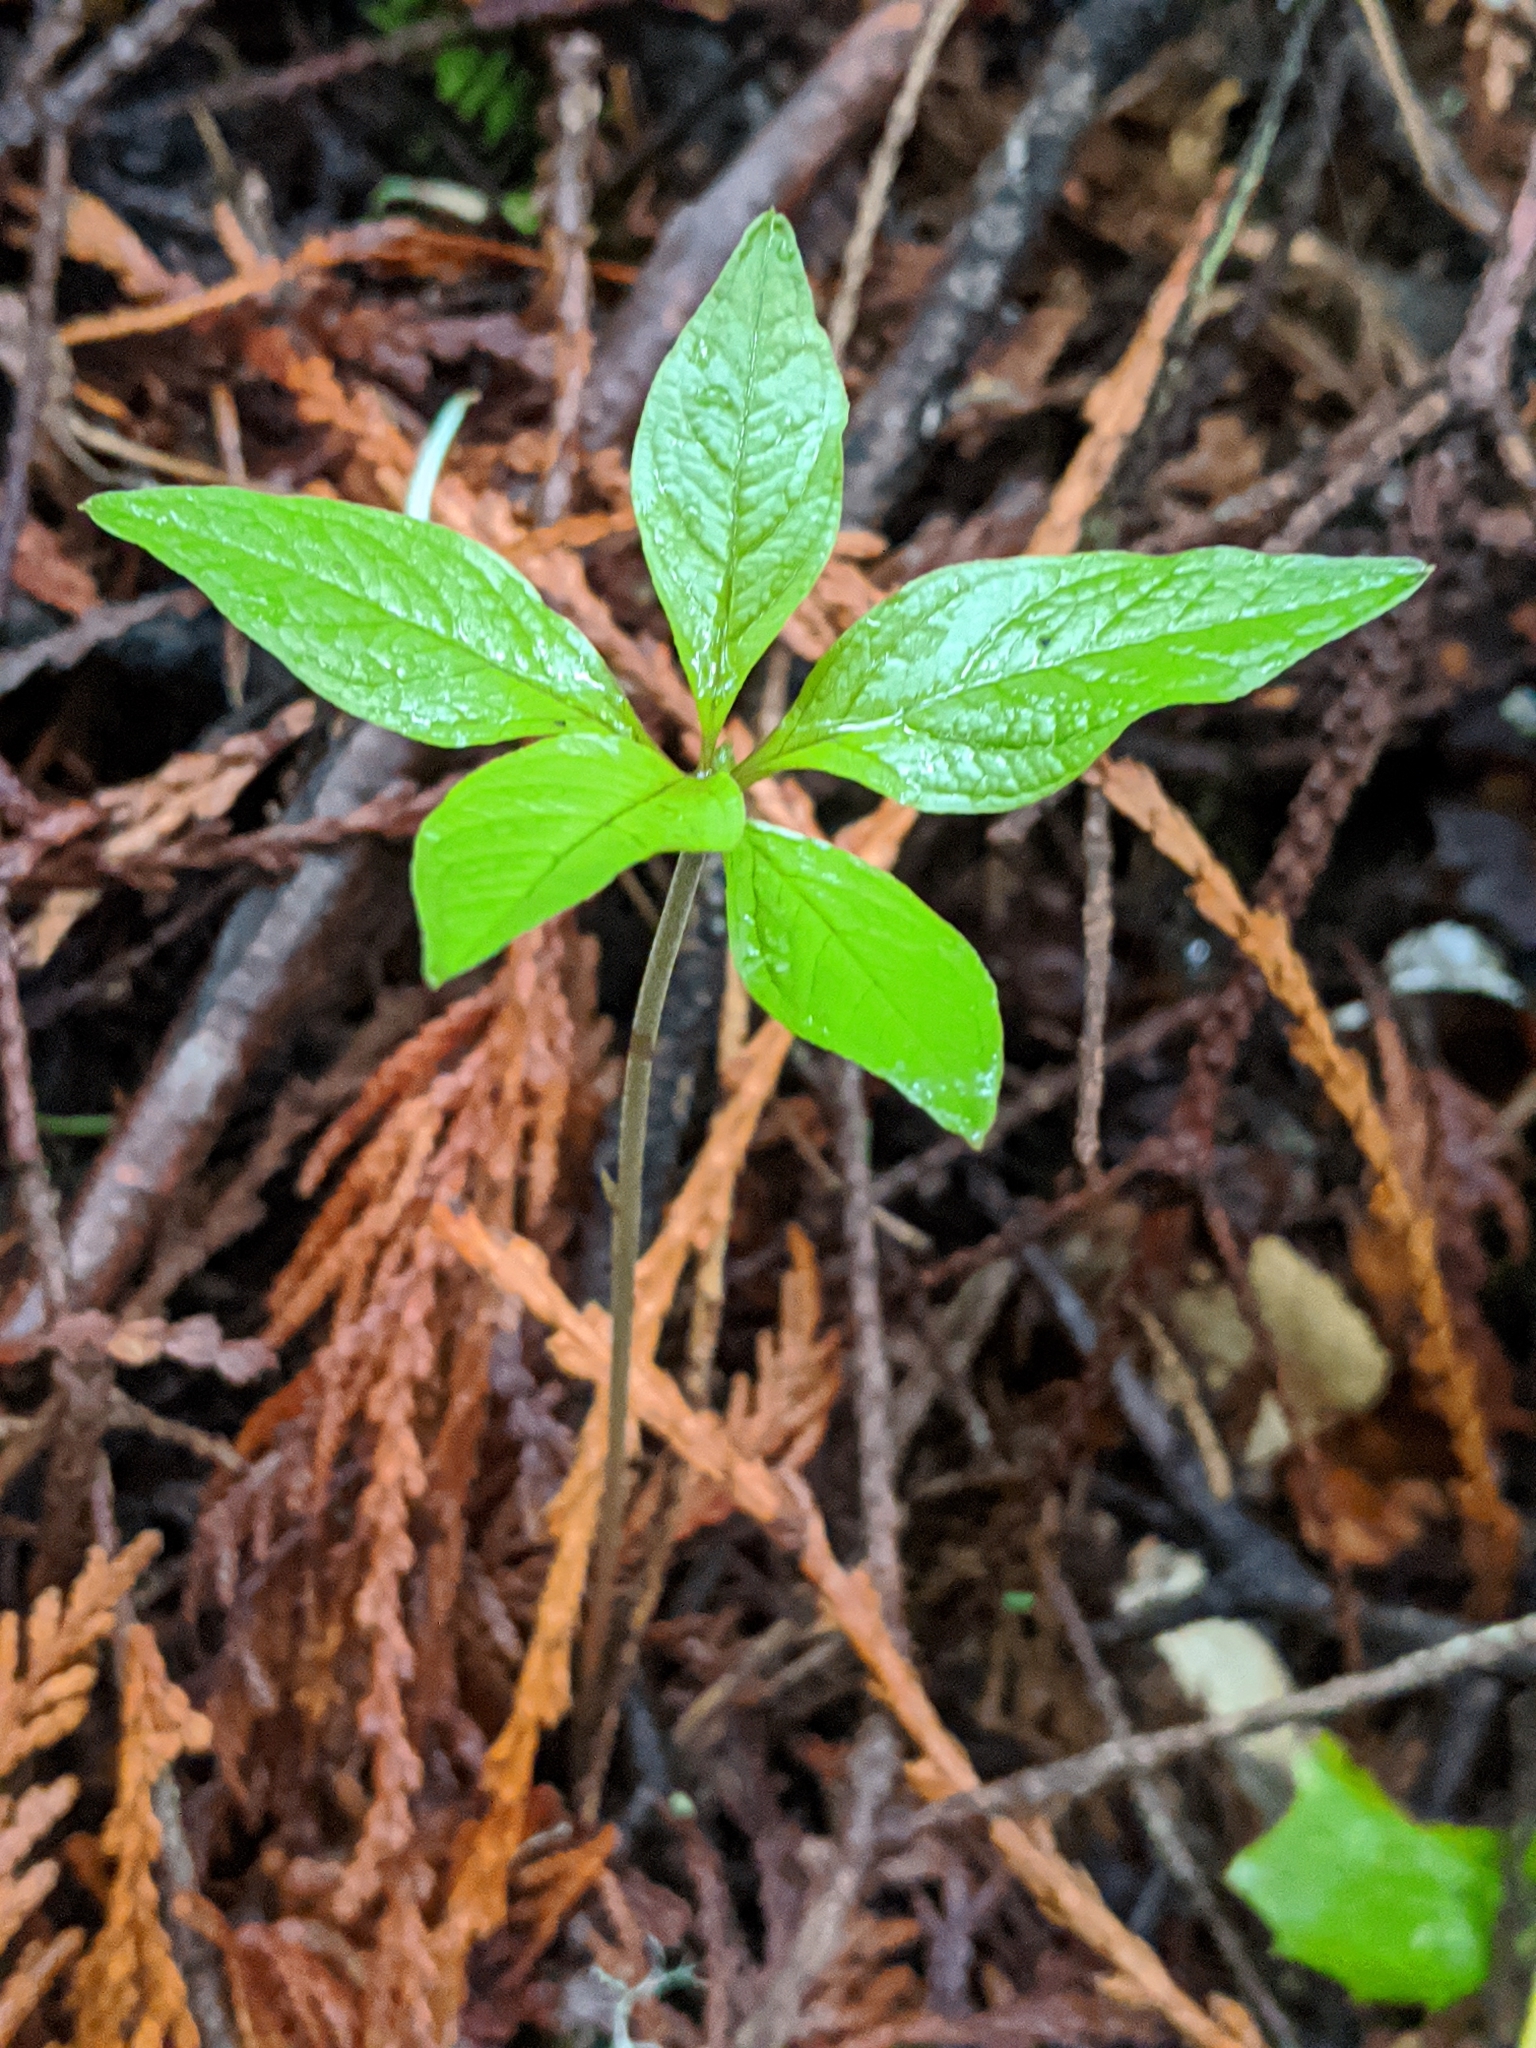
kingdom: Plantae
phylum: Tracheophyta
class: Magnoliopsida
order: Ericales
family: Primulaceae
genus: Lysimachia
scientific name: Lysimachia latifolia
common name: Pacific starflower
